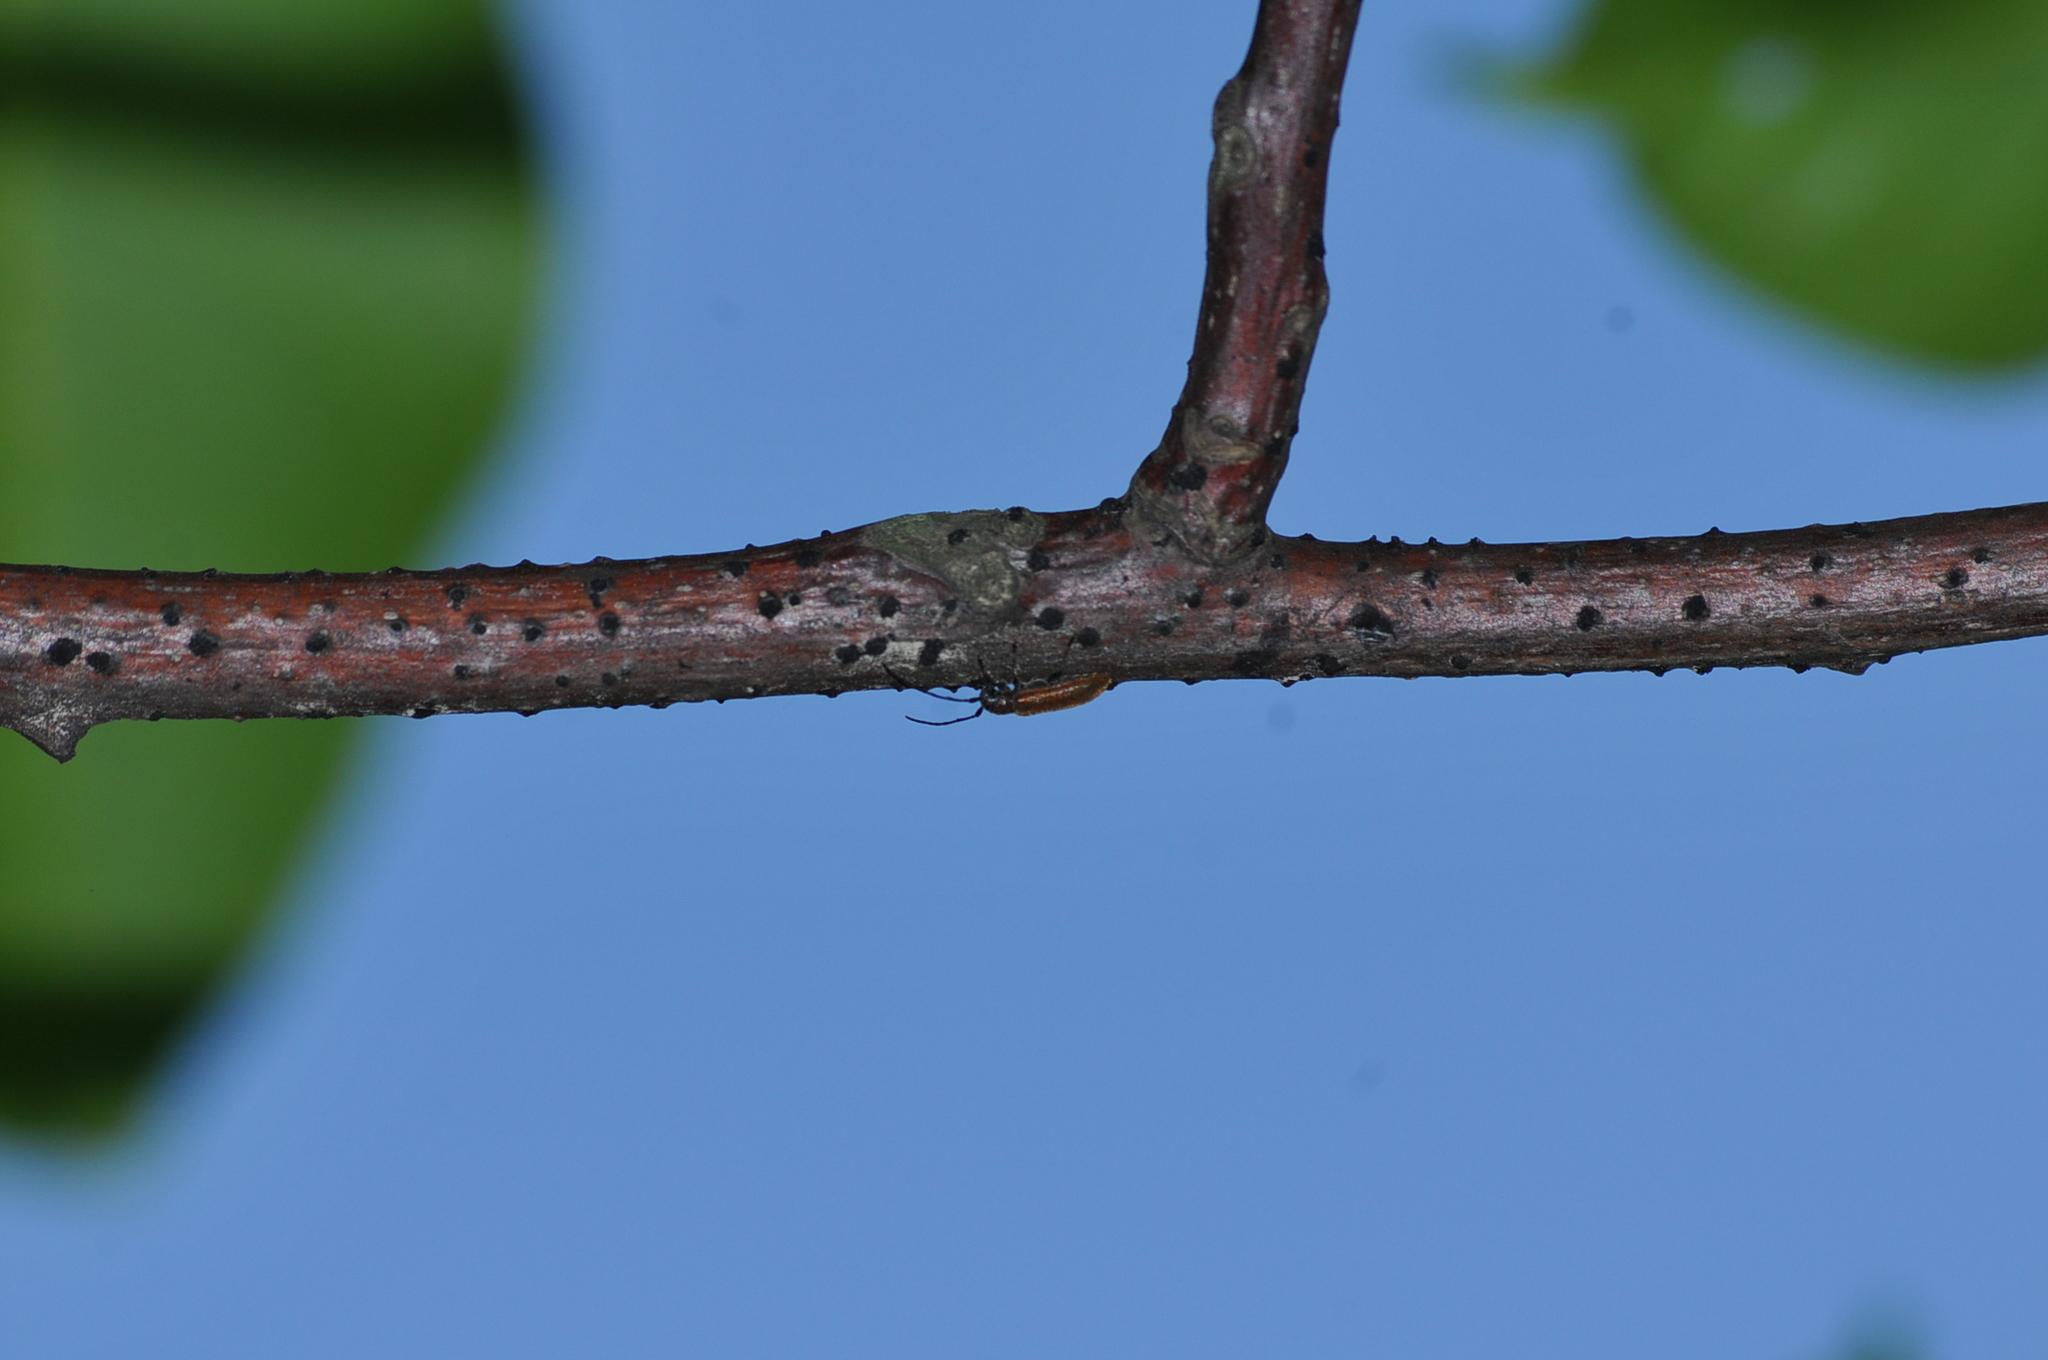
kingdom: Animalia
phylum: Arthropoda
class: Insecta
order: Coleoptera
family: Cerambycidae
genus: Anaesthetis
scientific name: Anaesthetis testacea
